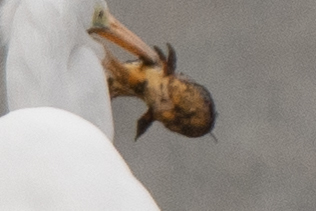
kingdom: Animalia
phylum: Chordata
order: Siluriformes
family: Ictaluridae
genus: Ameiurus
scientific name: Ameiurus melas
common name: Black bullhead
